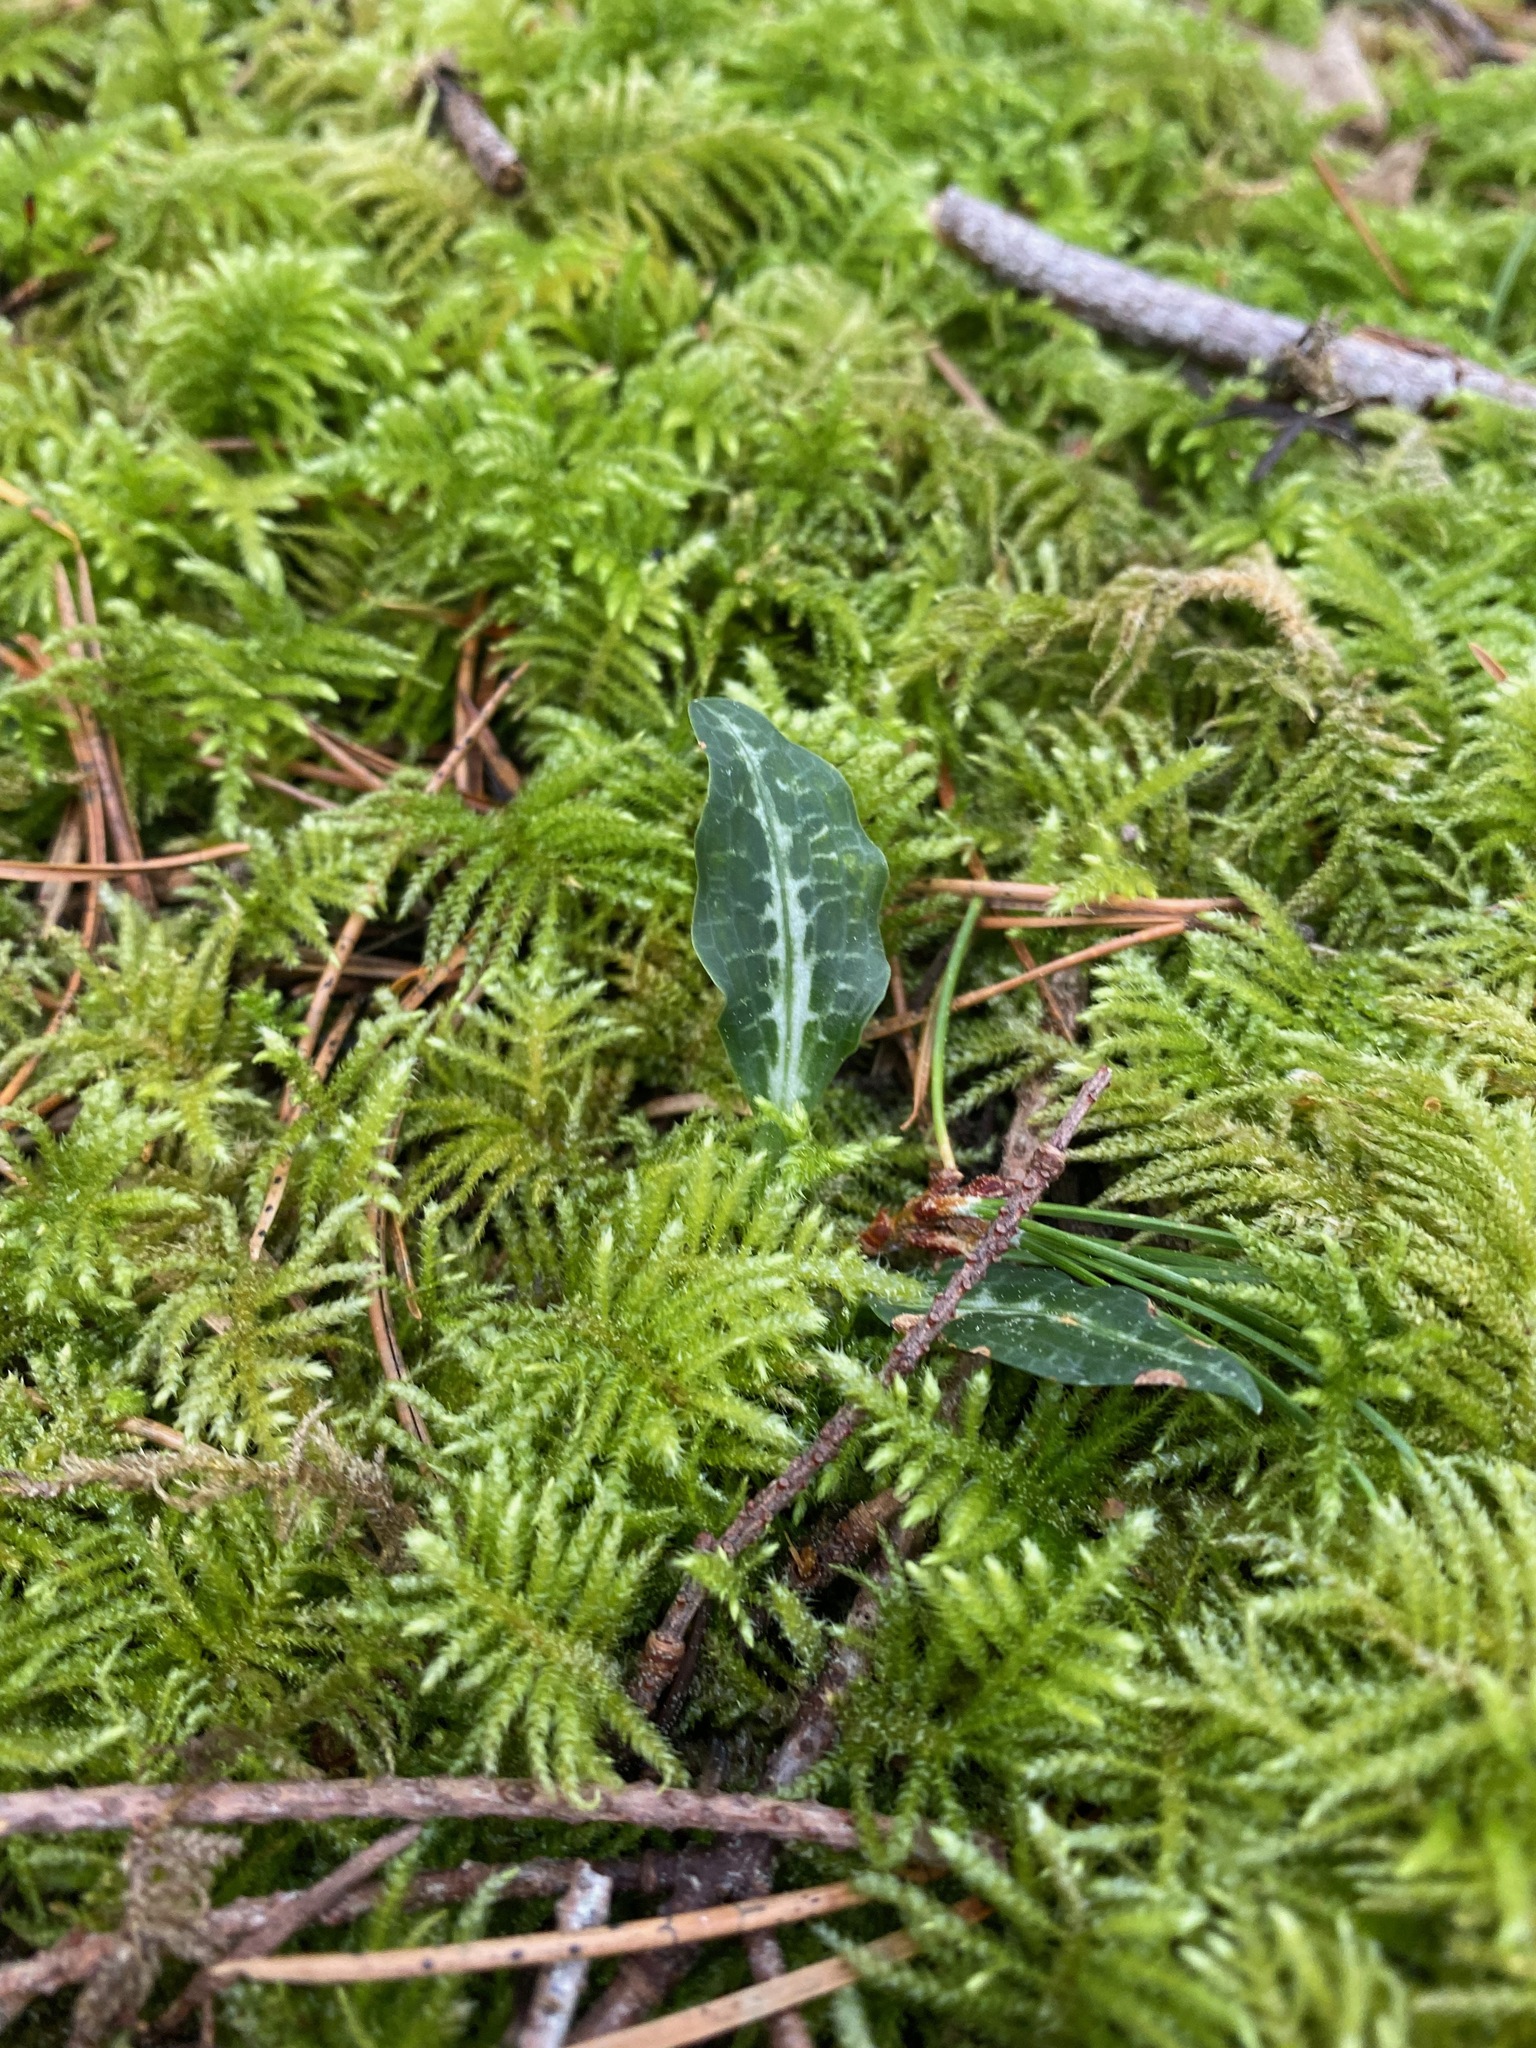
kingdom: Plantae
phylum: Tracheophyta
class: Liliopsida
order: Asparagales
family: Orchidaceae
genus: Goodyera
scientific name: Goodyera oblongifolia
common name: Giant rattlesnake-plantain
